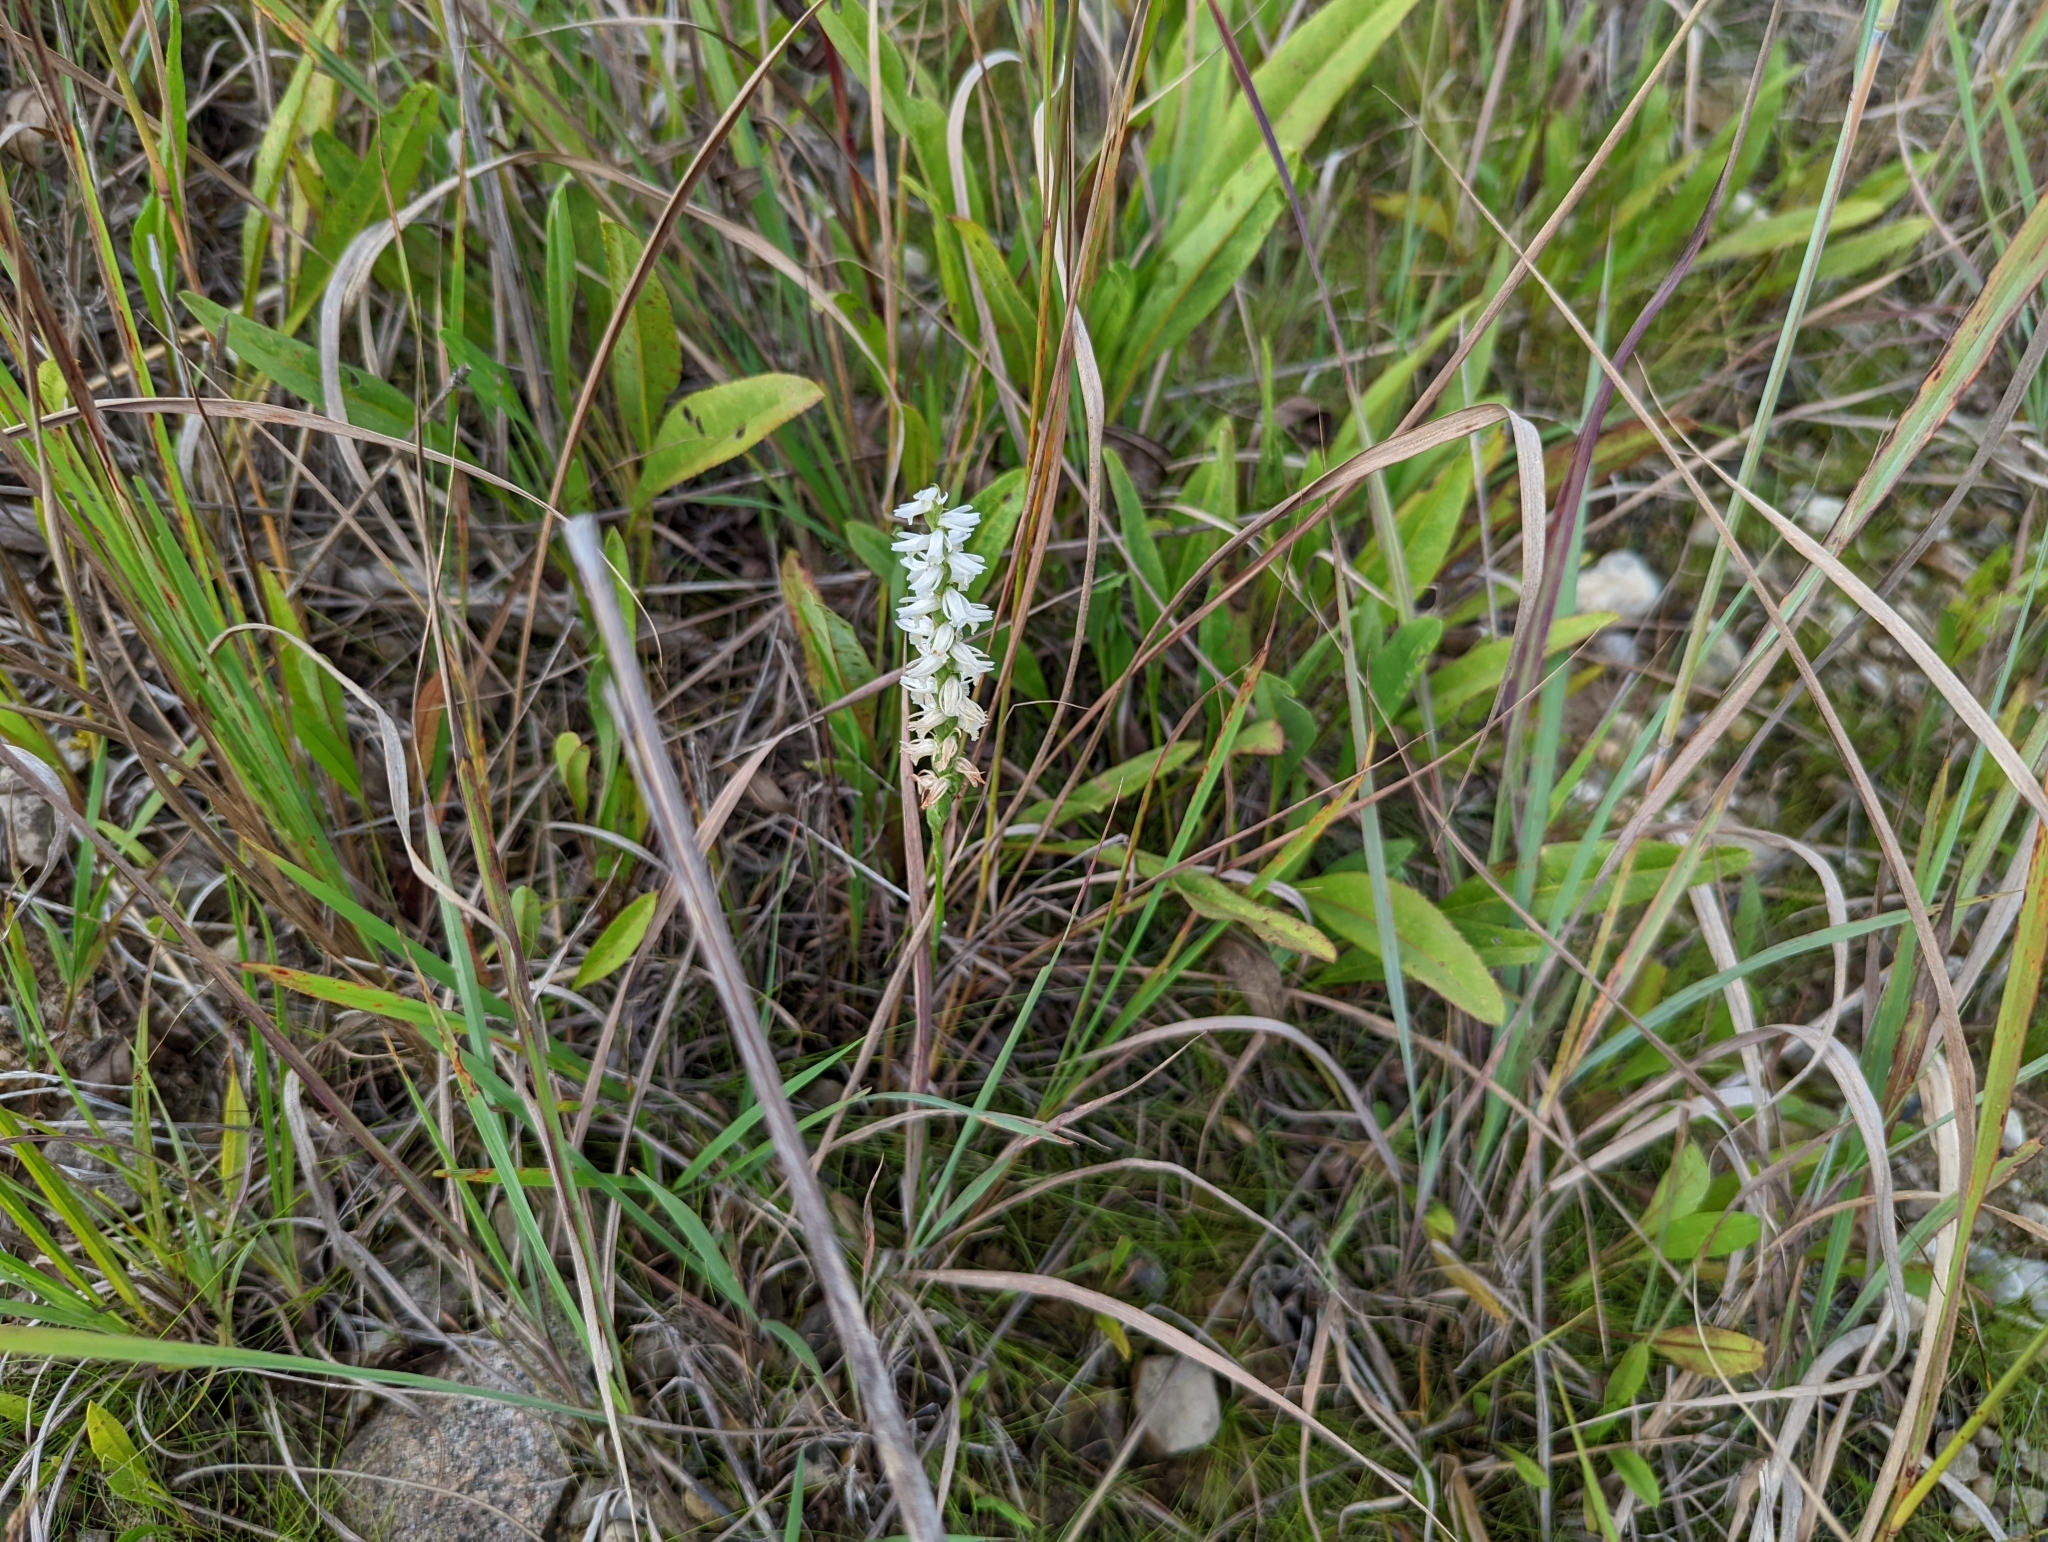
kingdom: Plantae
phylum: Tracheophyta
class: Liliopsida
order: Asparagales
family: Orchidaceae
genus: Spiranthes
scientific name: Spiranthes magnicamporum
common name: Great plains ladies'-tresses
